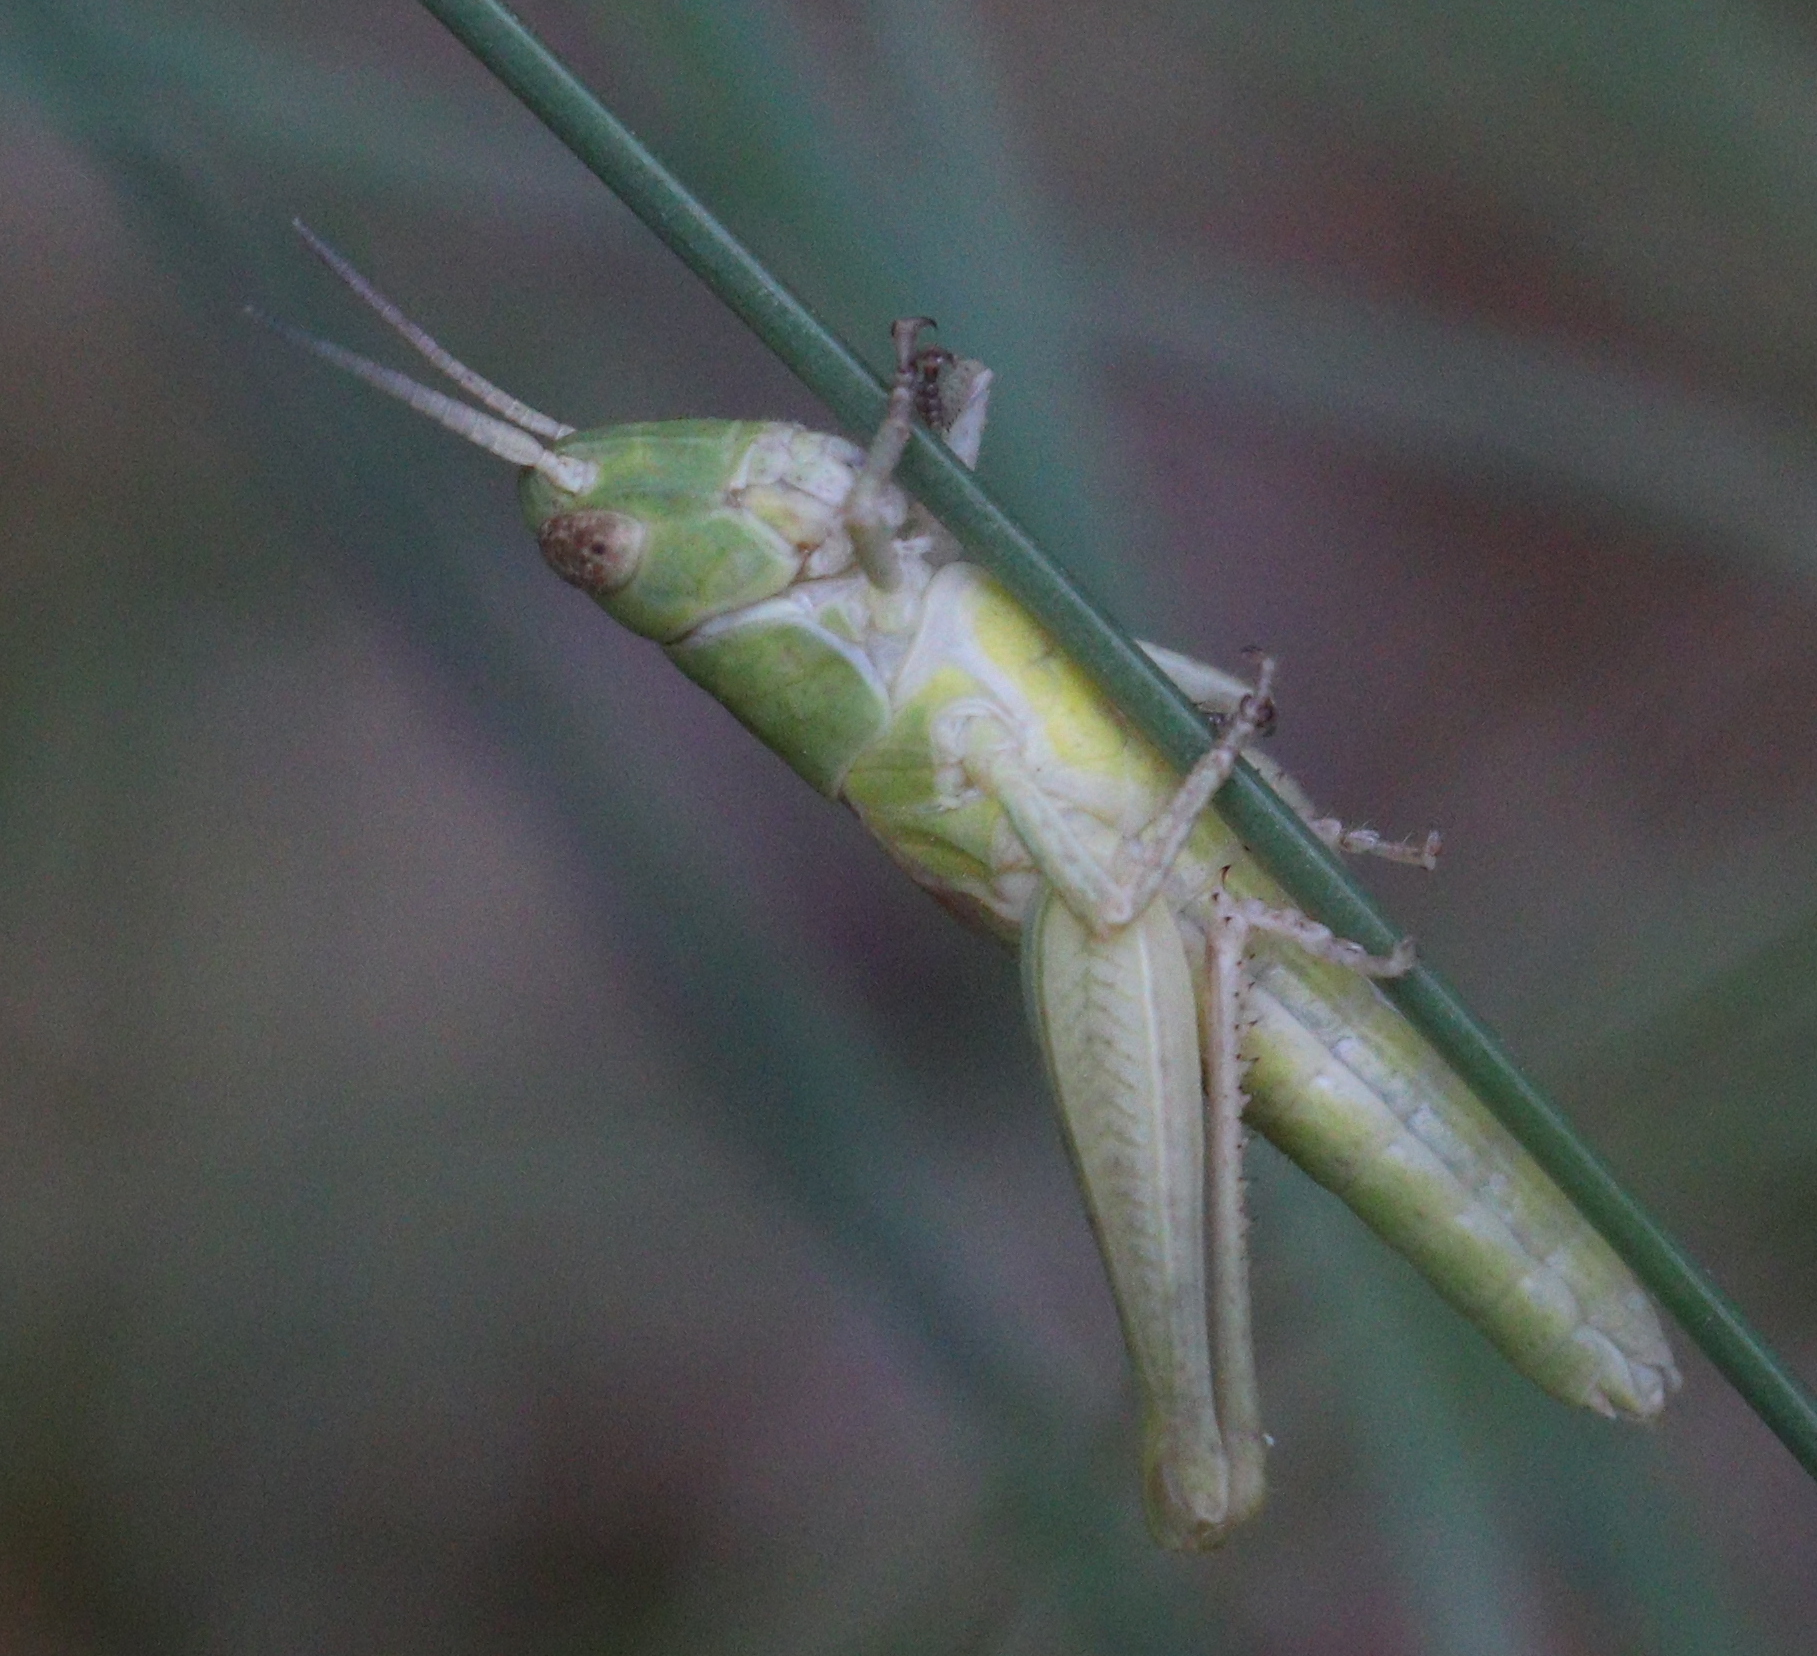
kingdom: Animalia
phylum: Arthropoda
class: Insecta
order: Orthoptera
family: Acrididae
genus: Pseudochorthippus
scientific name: Pseudochorthippus parallelus
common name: Meadow grasshopper
